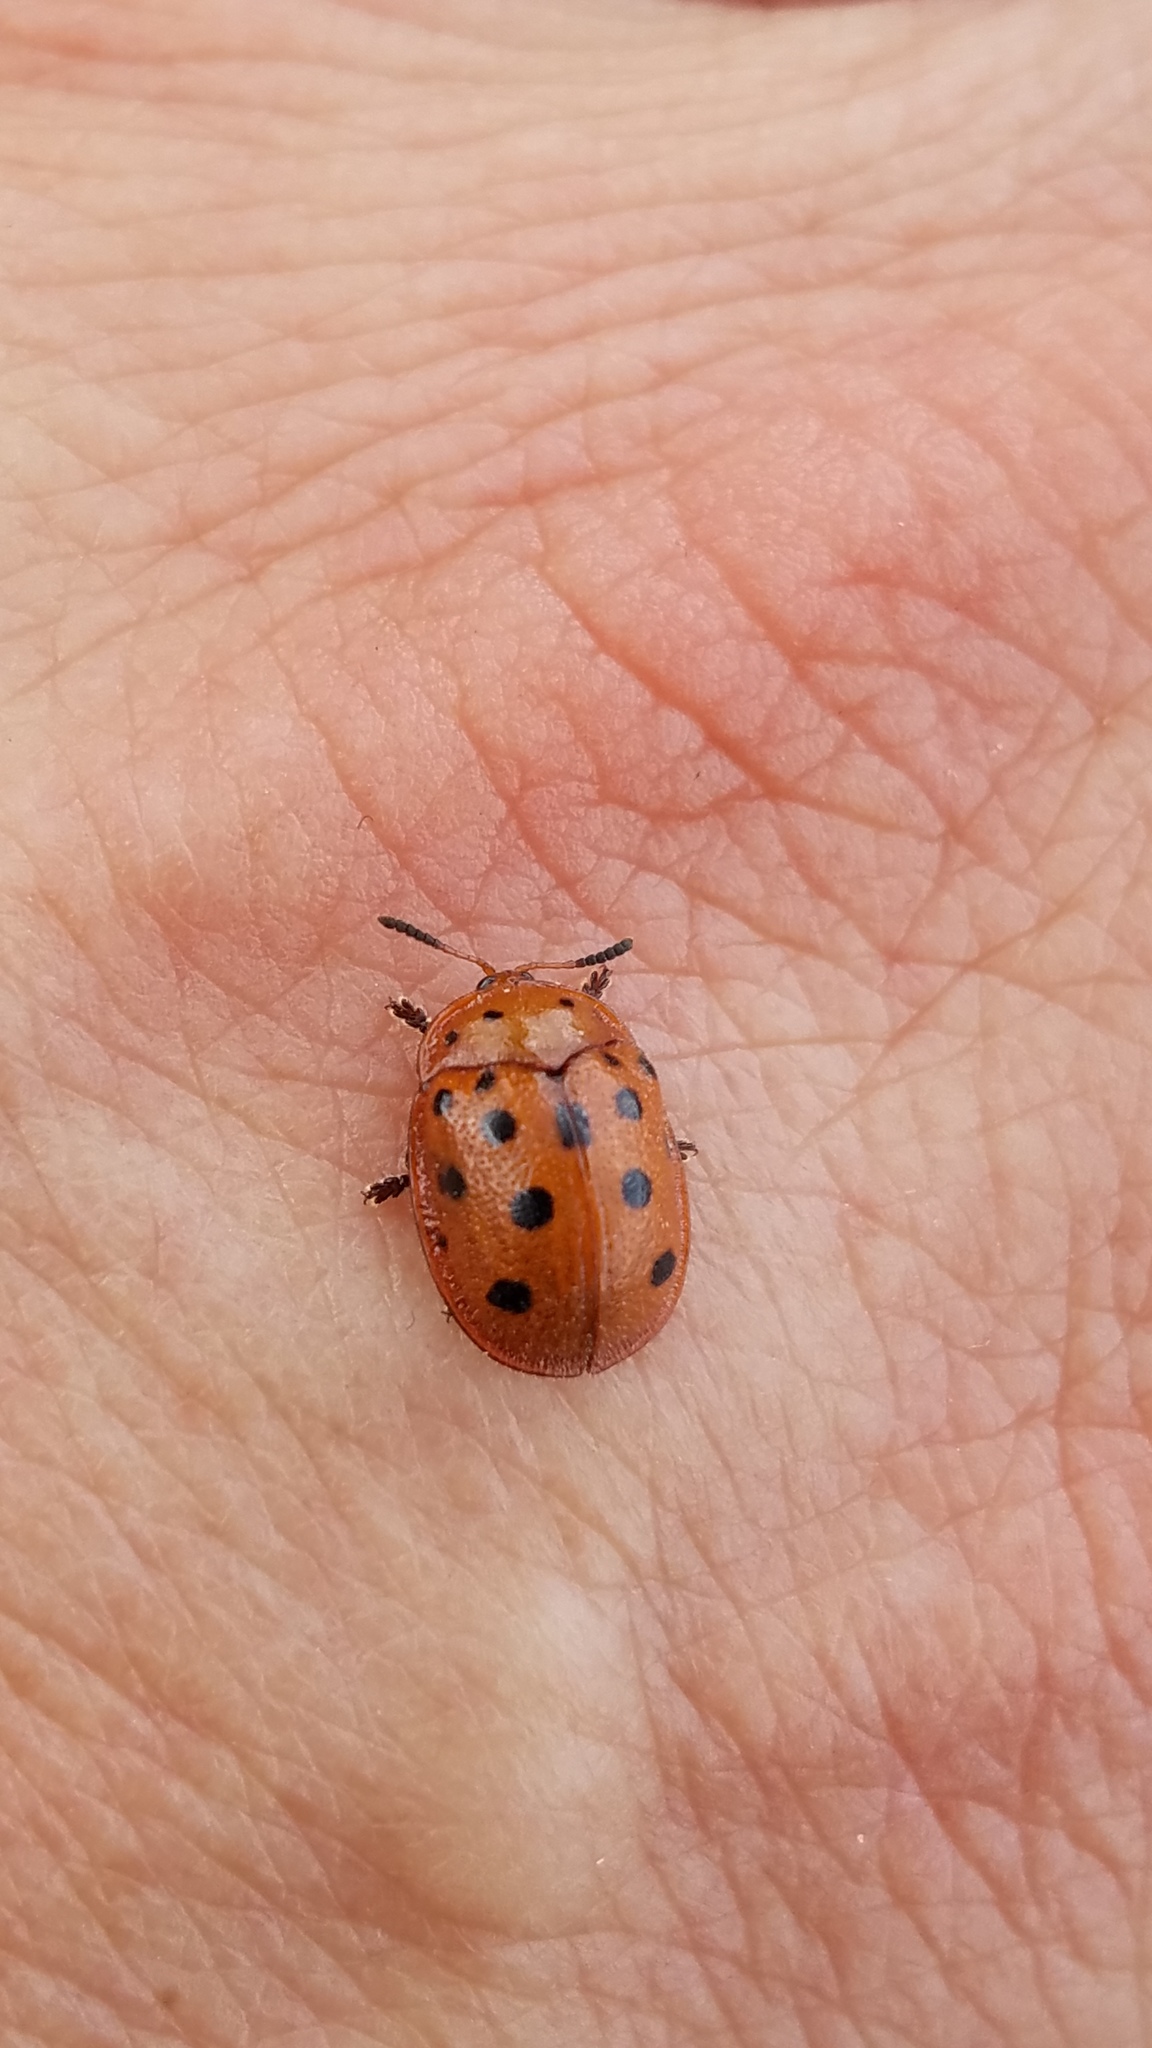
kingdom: Animalia
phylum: Arthropoda
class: Insecta
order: Coleoptera
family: Chrysomelidae
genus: Chelymorpha
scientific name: Chelymorpha phytophagica
